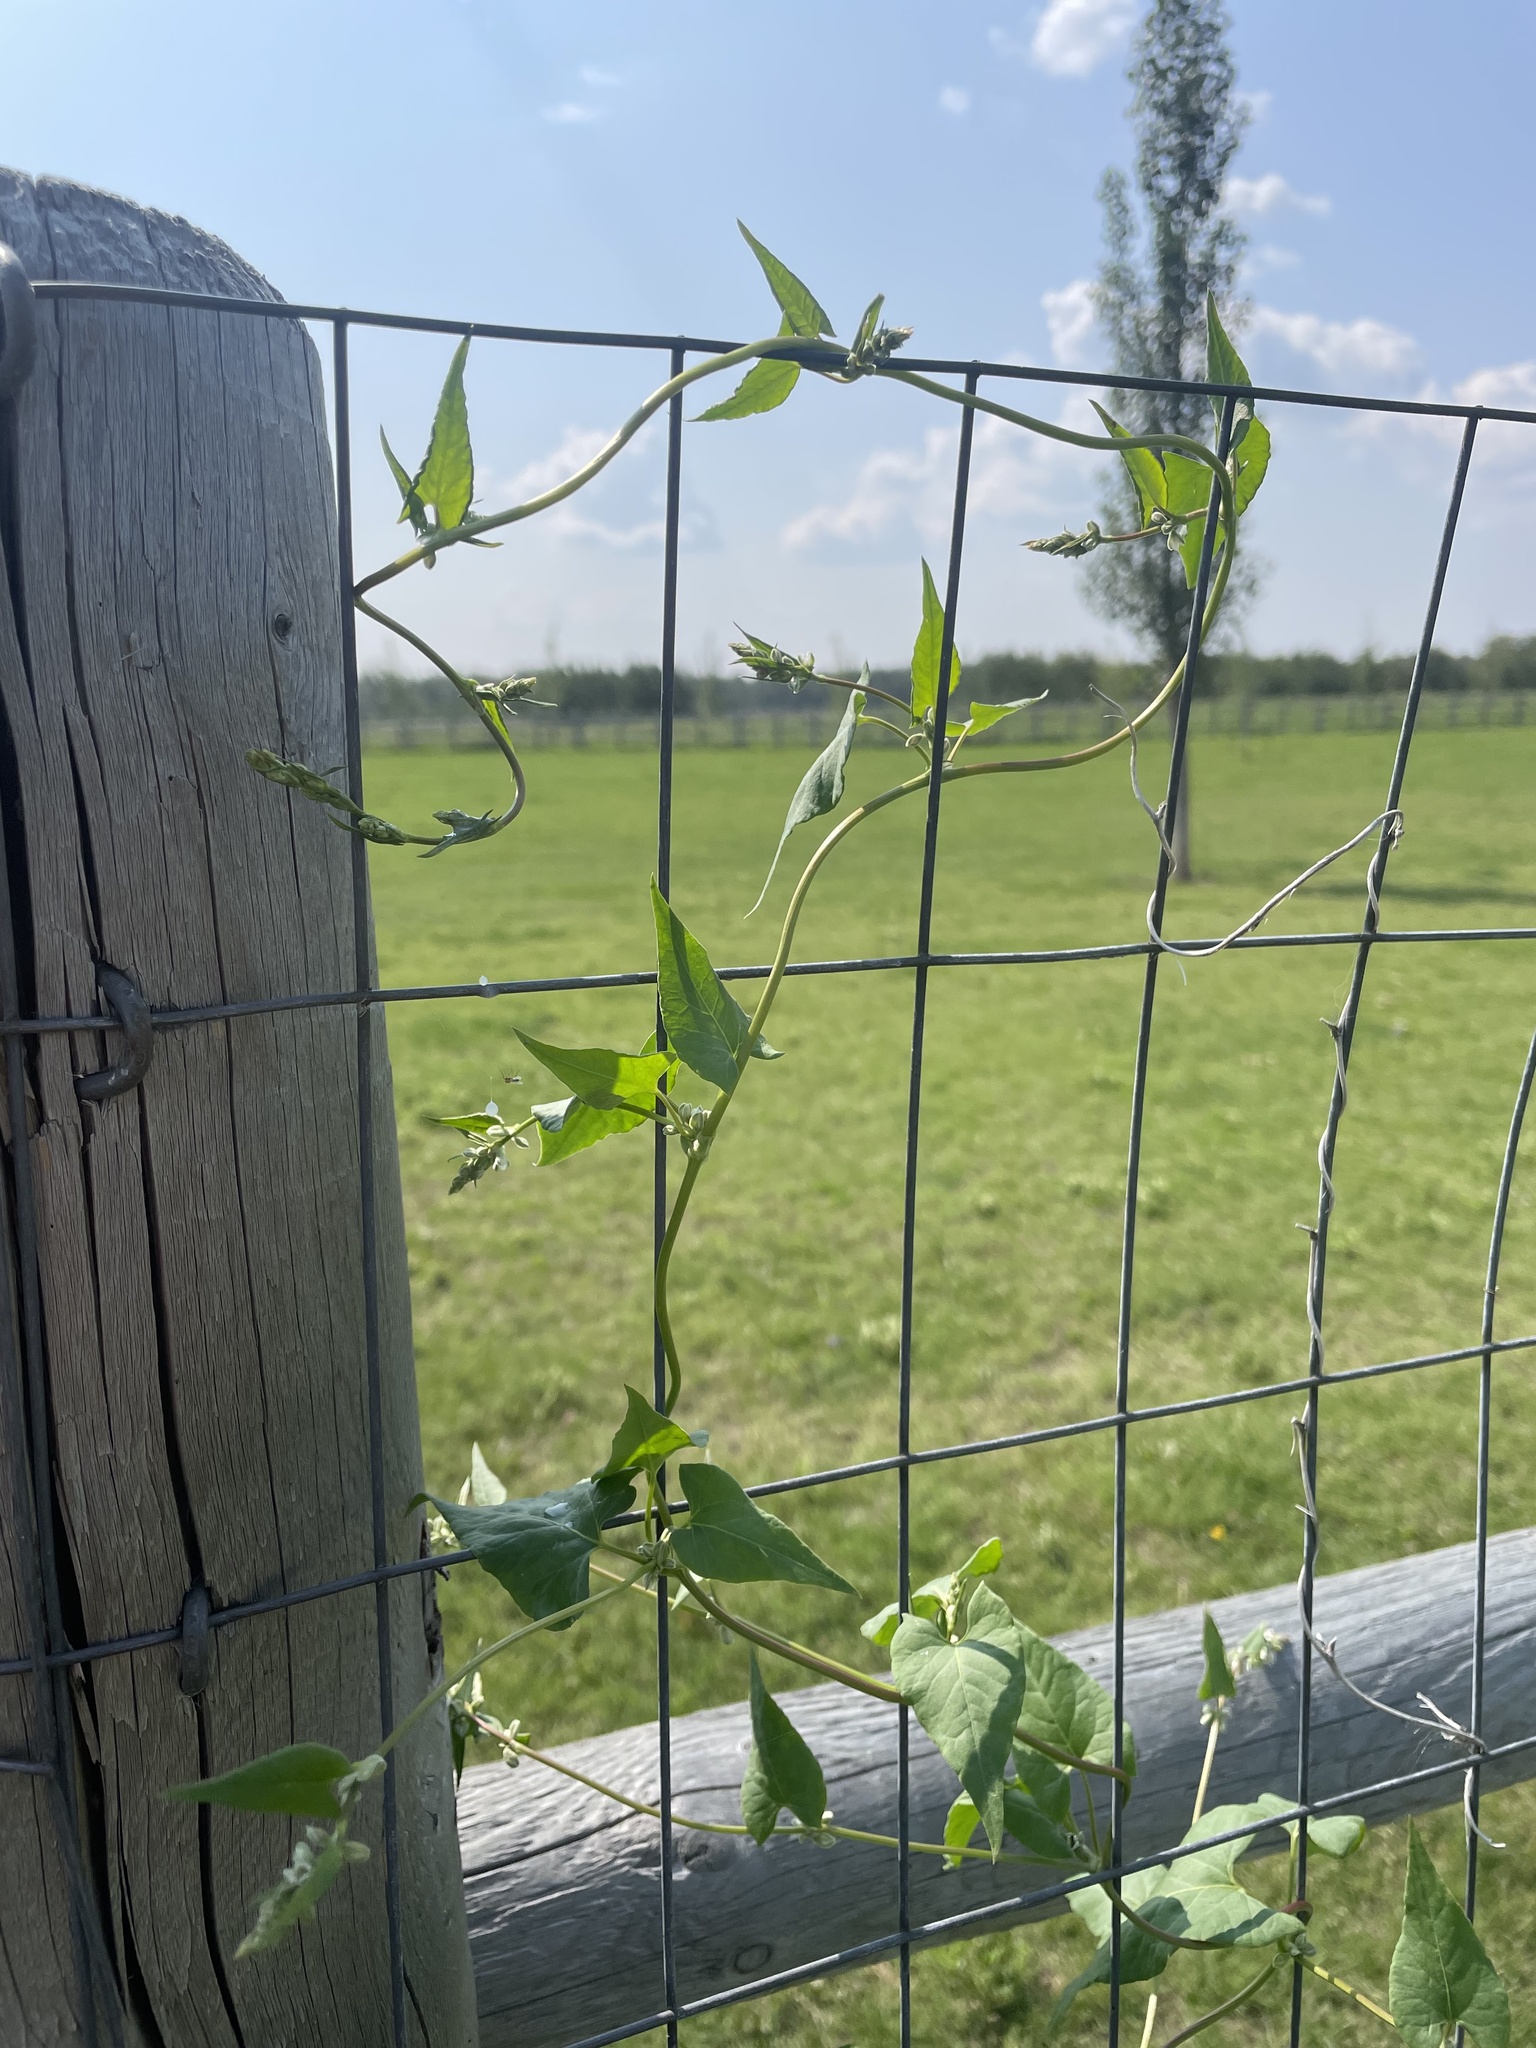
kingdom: Plantae
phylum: Tracheophyta
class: Magnoliopsida
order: Caryophyllales
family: Polygonaceae
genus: Fallopia
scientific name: Fallopia convolvulus
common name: Black bindweed
